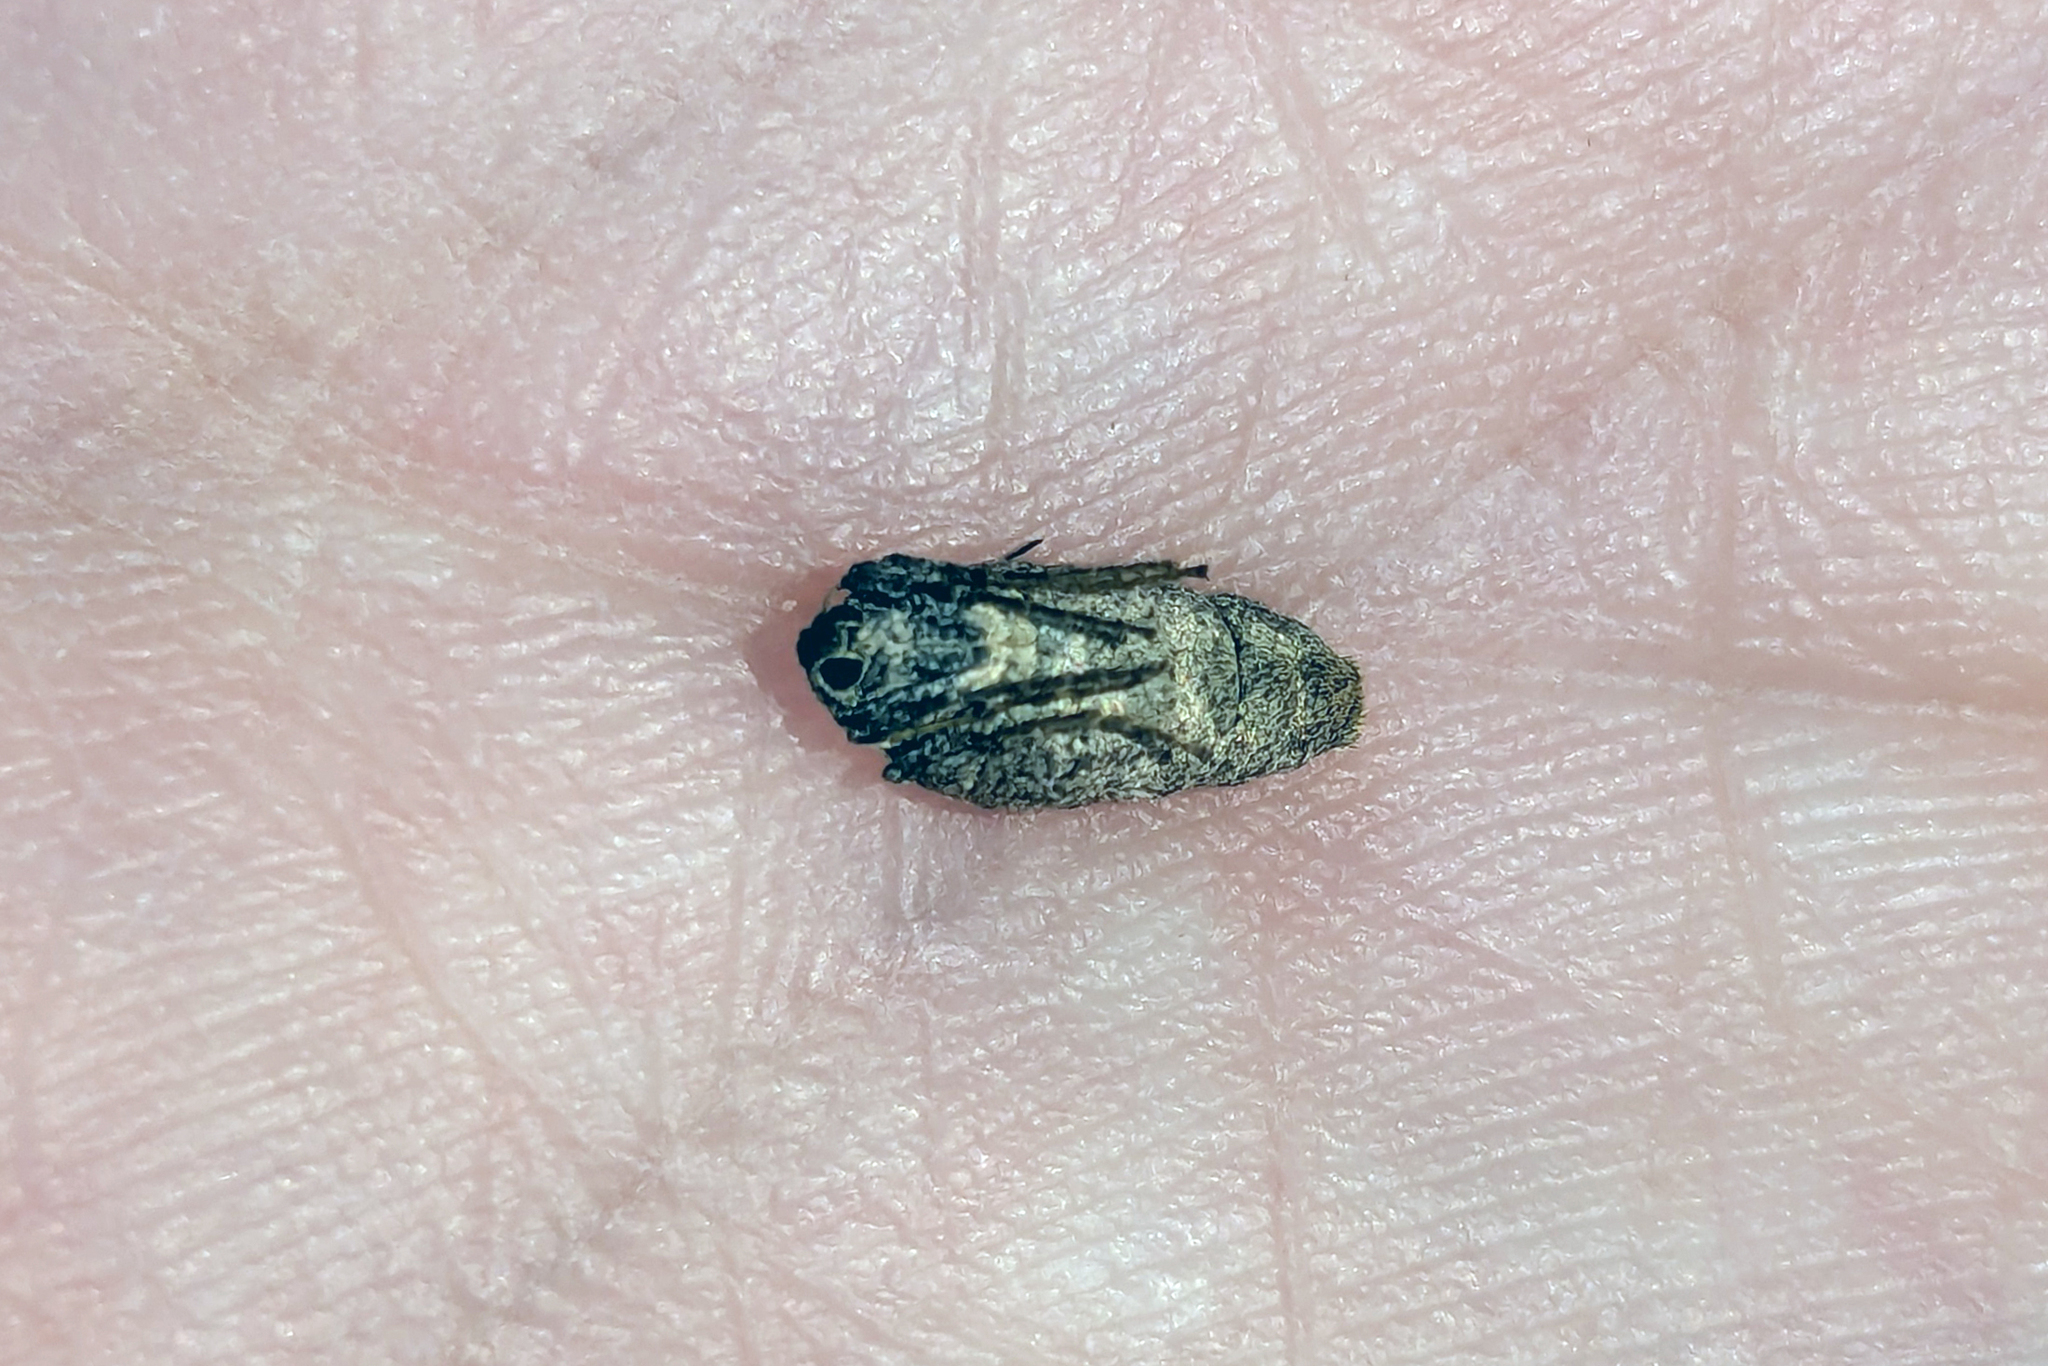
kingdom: Animalia
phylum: Arthropoda
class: Insecta
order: Lepidoptera
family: Geometridae
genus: Alsophila
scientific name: Alsophila pometaria
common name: Fall cankerworm
